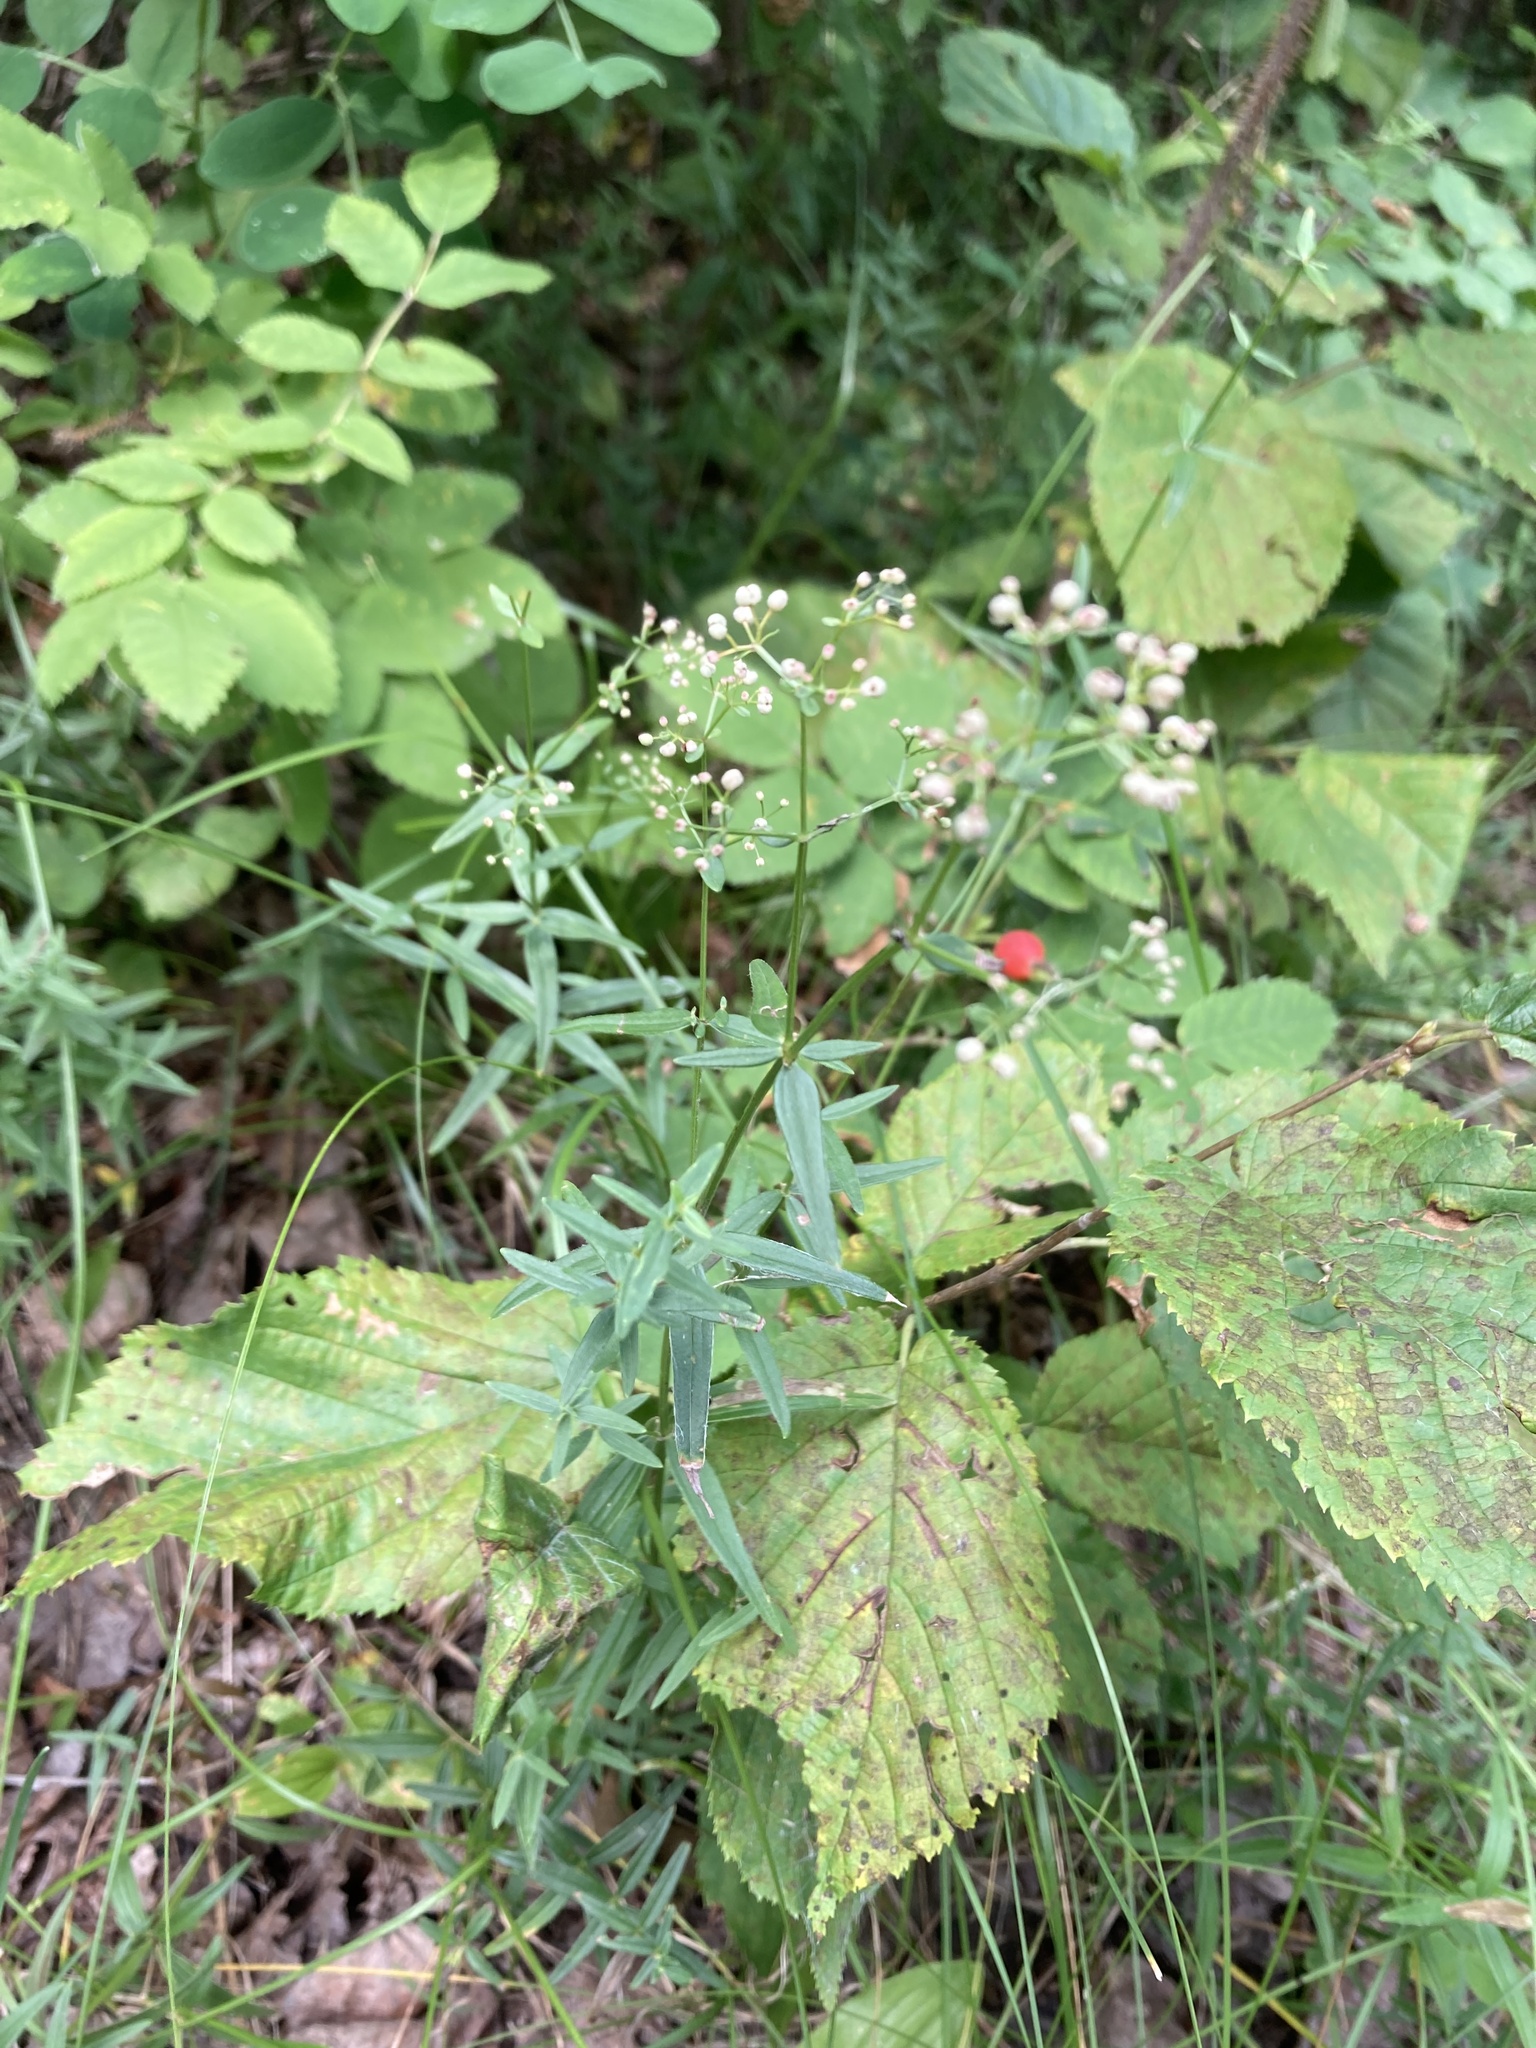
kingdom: Plantae
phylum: Tracheophyta
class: Magnoliopsida
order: Gentianales
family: Rubiaceae
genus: Galium
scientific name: Galium boreale
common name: Northern bedstraw
